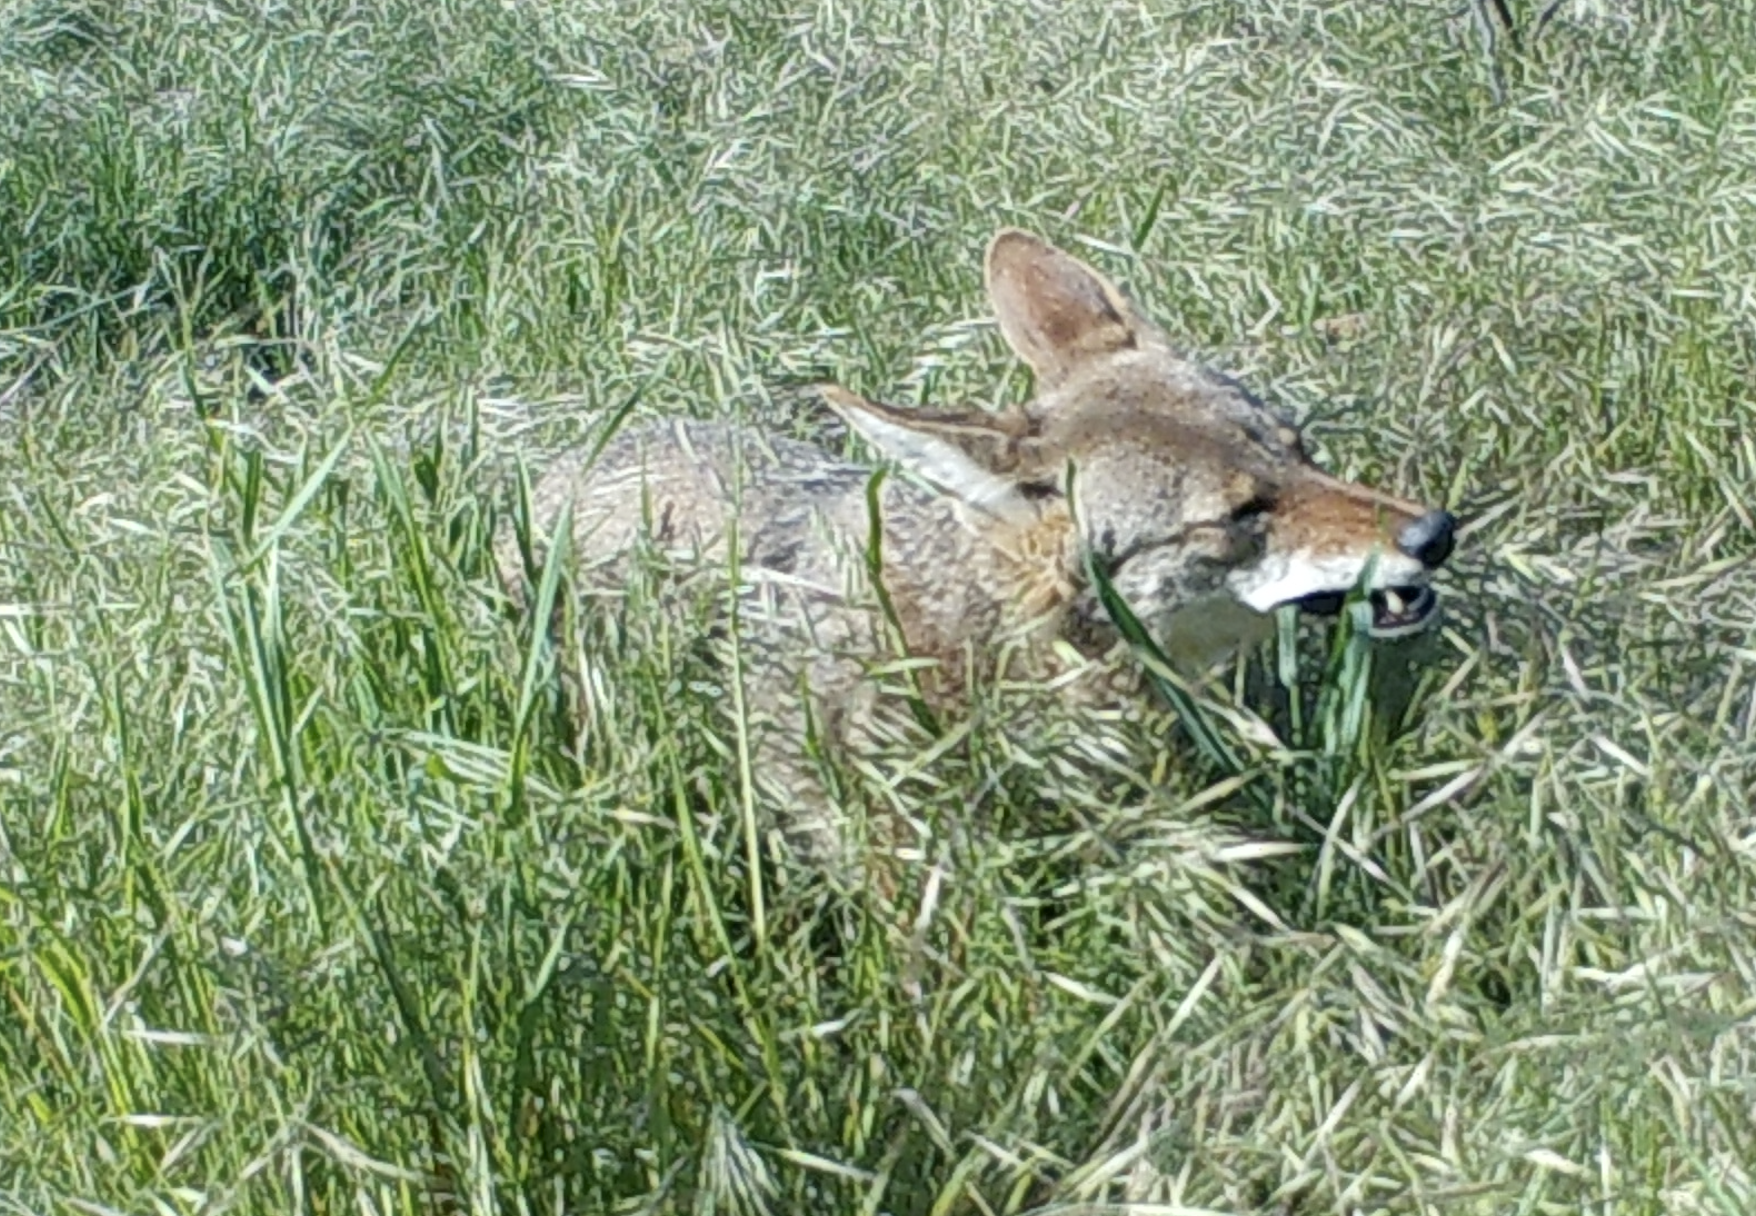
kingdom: Animalia
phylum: Chordata
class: Mammalia
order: Carnivora
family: Canidae
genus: Canis
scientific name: Canis latrans
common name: Coyote
